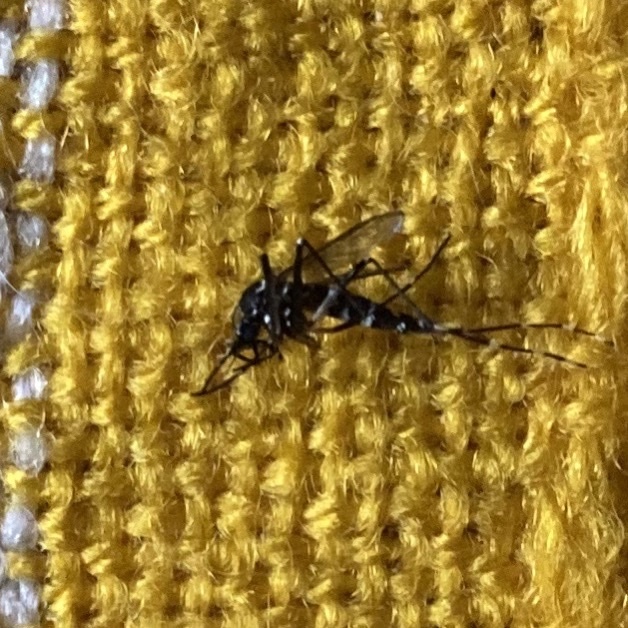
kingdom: Animalia
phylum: Arthropoda
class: Insecta
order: Diptera
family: Culicidae
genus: Aedes
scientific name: Aedes albopictus
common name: Tiger mosquito
